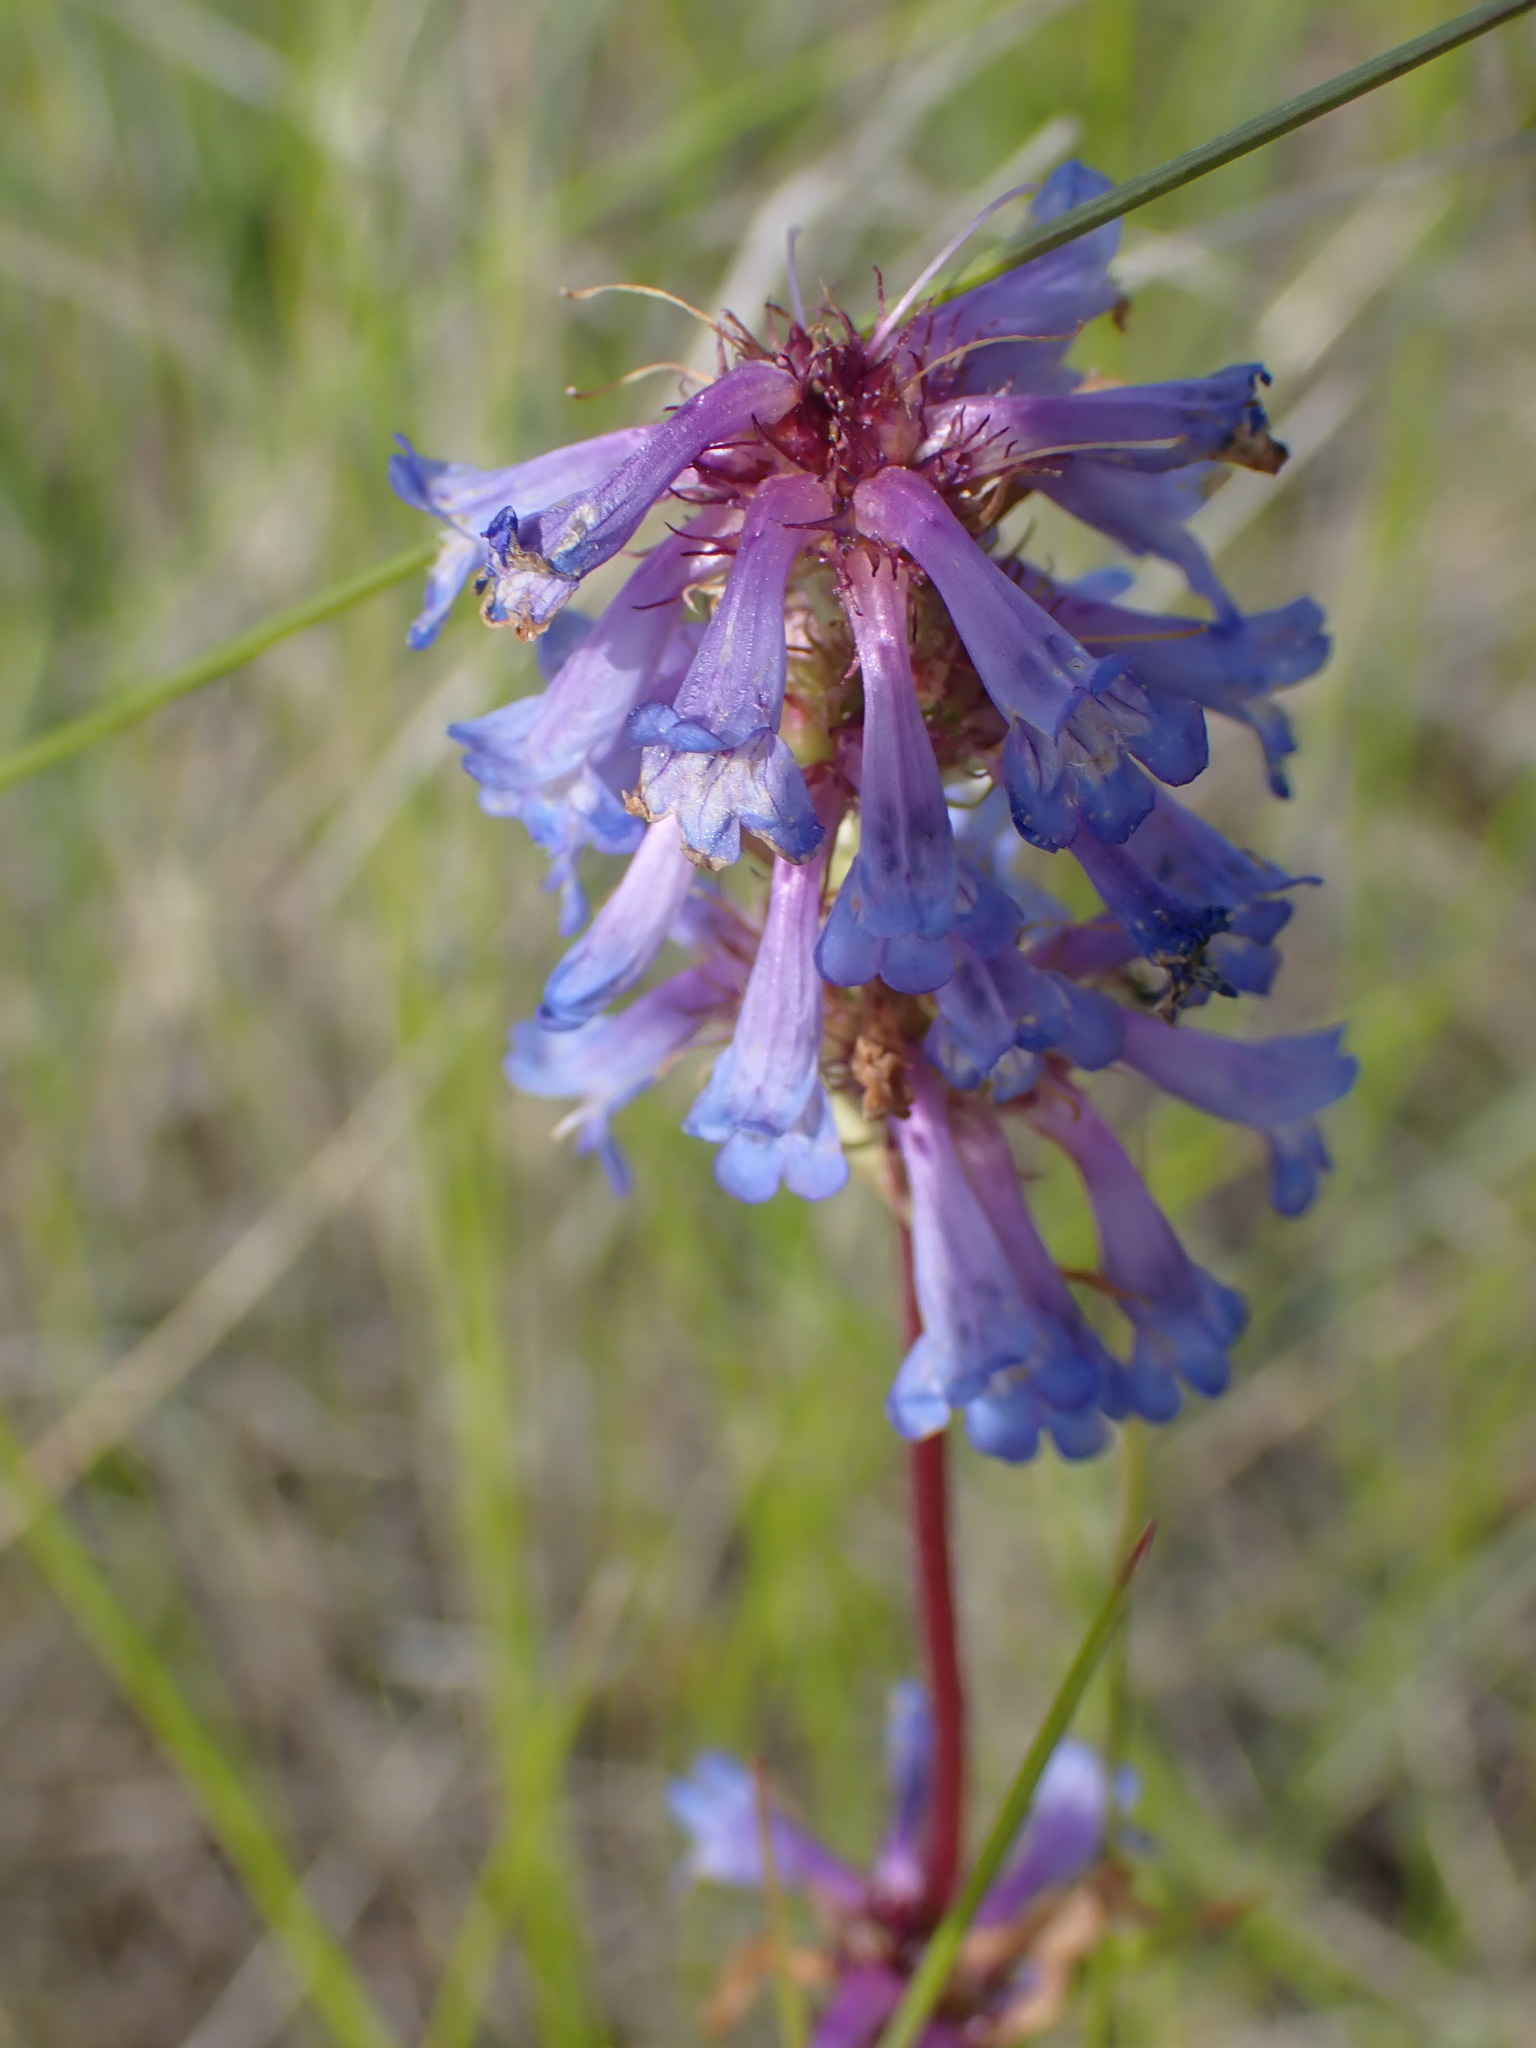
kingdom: Plantae
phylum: Tracheophyta
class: Magnoliopsida
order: Lamiales
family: Plantaginaceae
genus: Penstemon
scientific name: Penstemon procerus
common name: Small-flower penstemon
